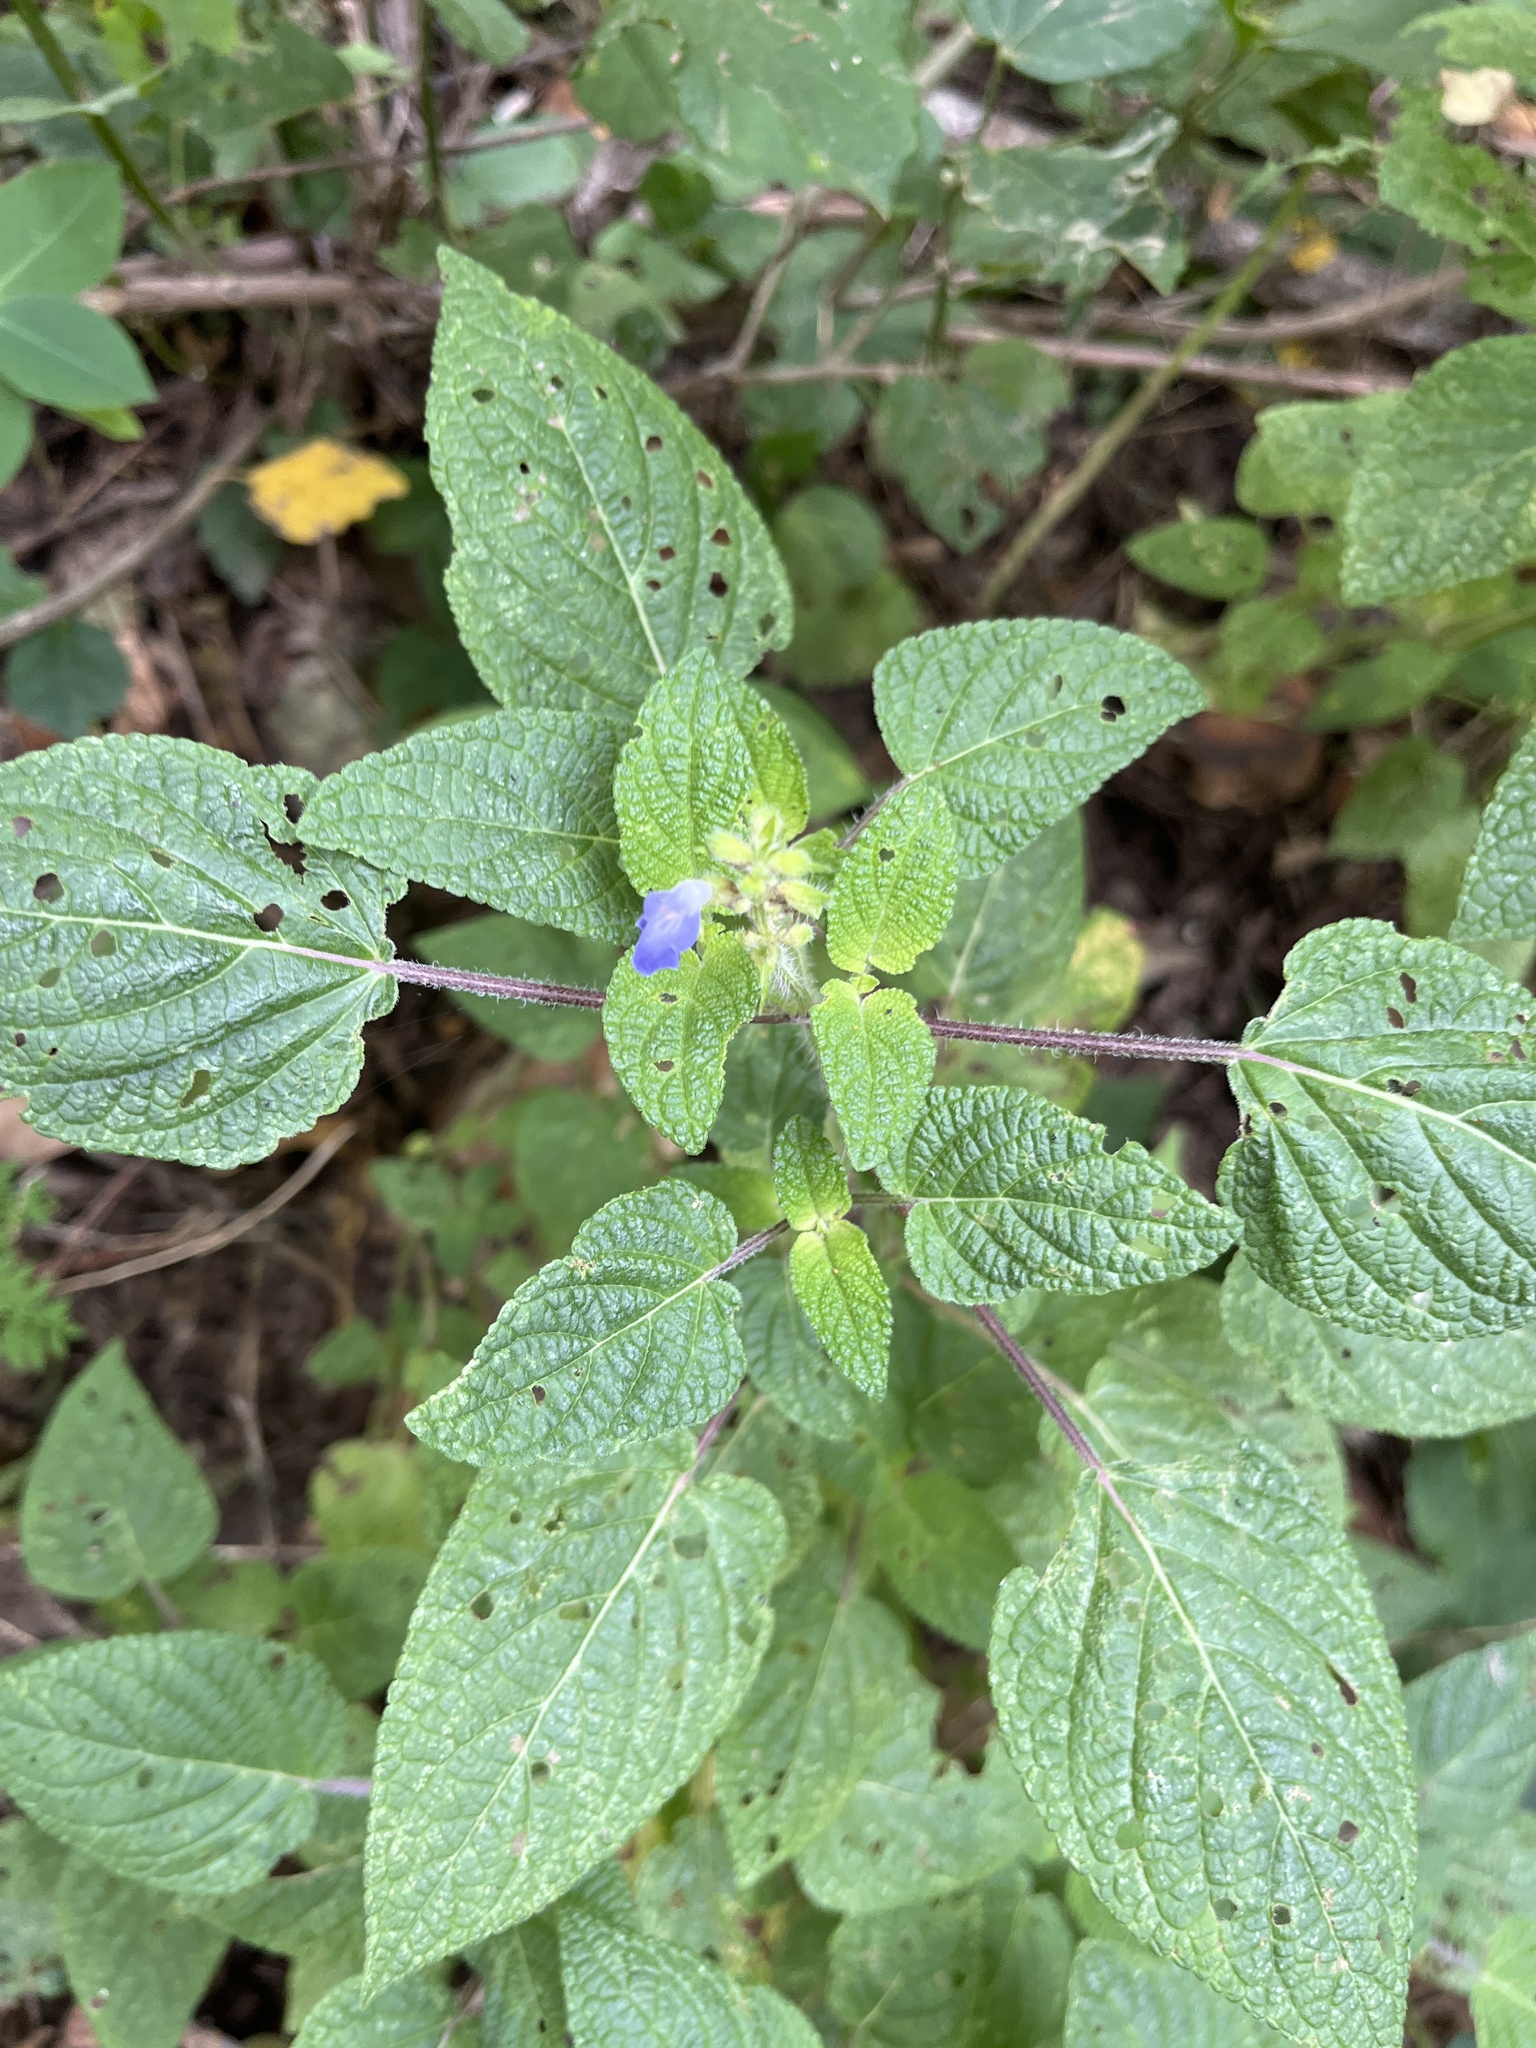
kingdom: Plantae
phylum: Tracheophyta
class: Magnoliopsida
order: Lamiales
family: Lamiaceae
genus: Salvia
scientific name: Salvia circinnata
